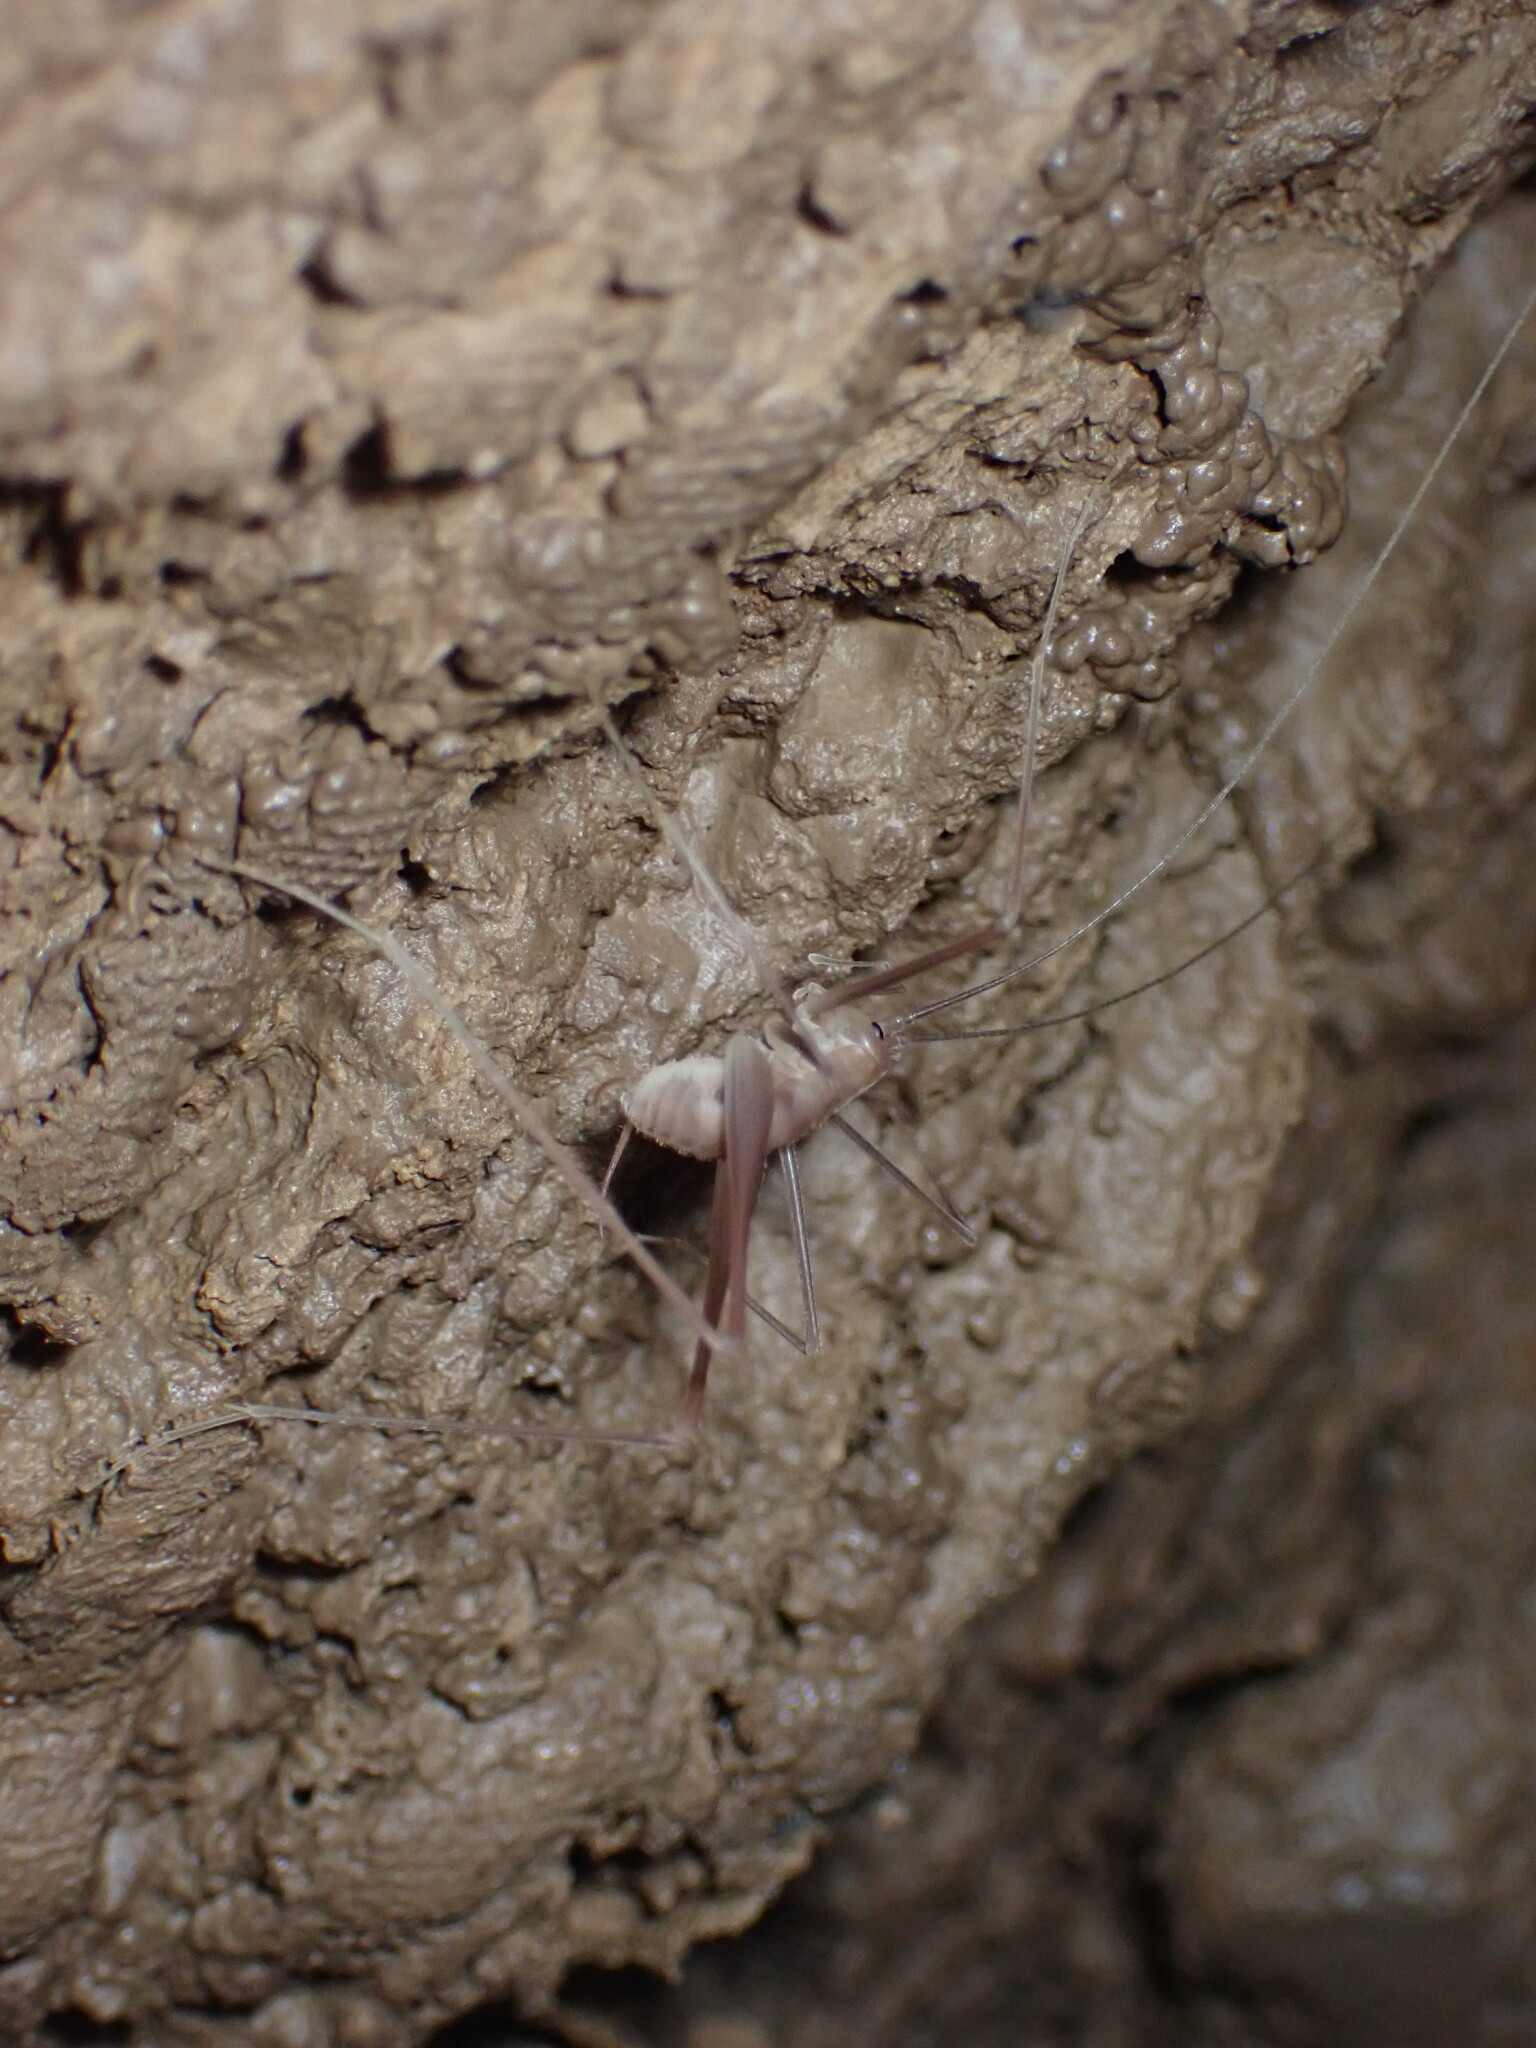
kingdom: Animalia
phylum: Arthropoda
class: Insecta
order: Orthoptera
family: Rhaphidophoridae
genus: Hadenoecus
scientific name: Hadenoecus jonesi
